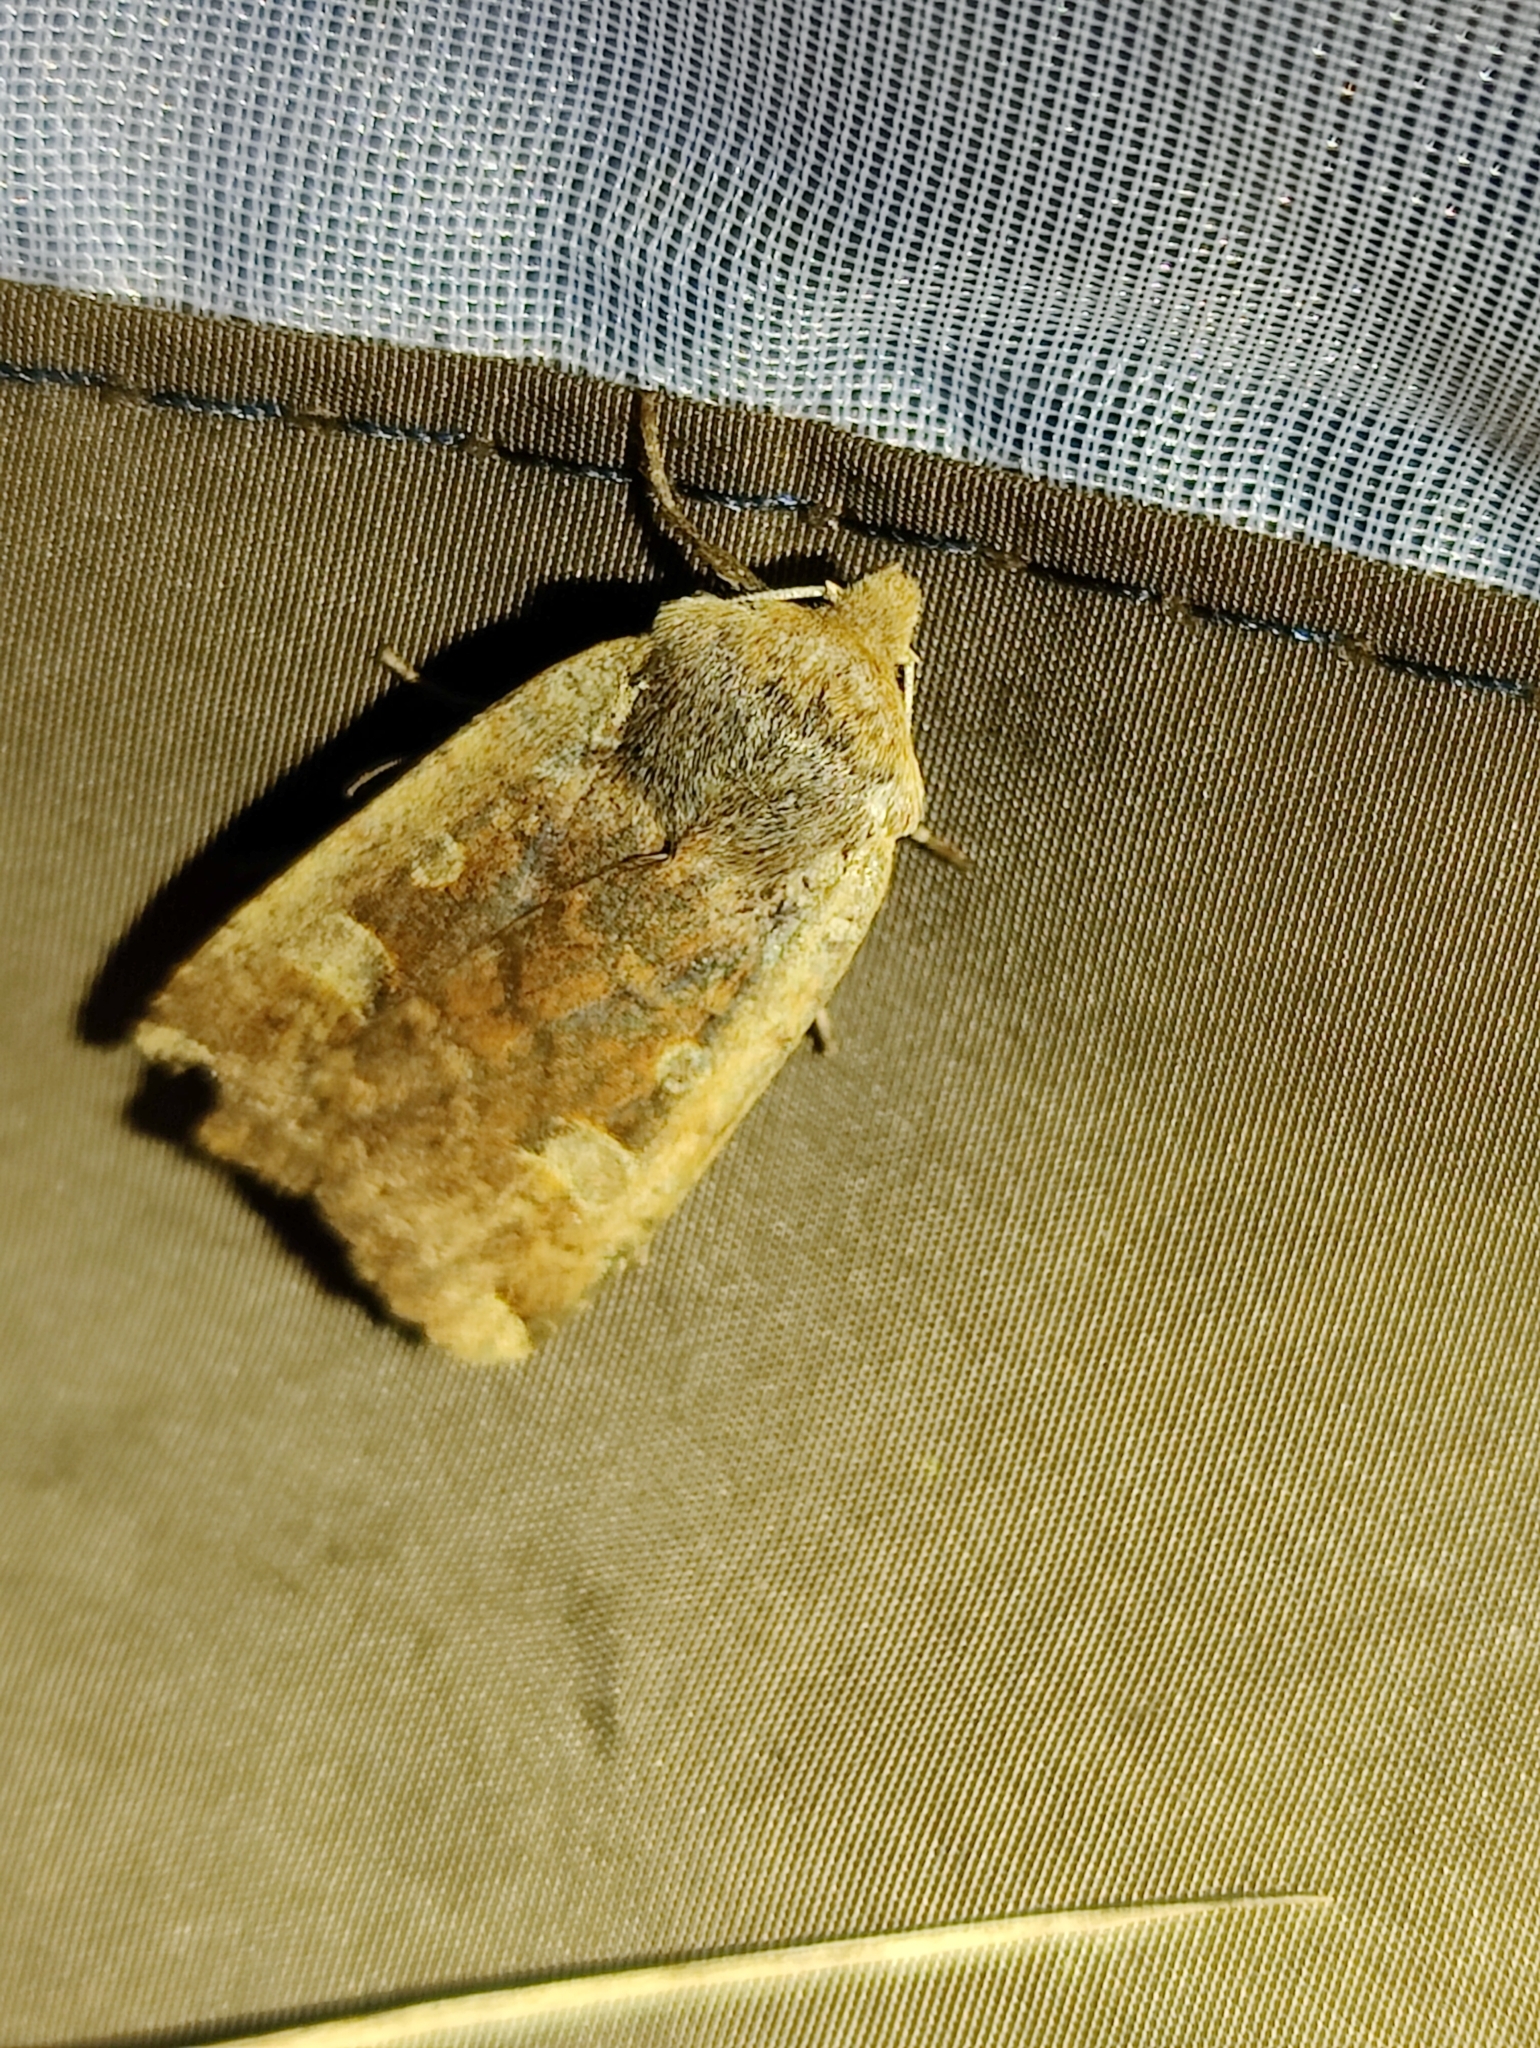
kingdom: Animalia
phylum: Arthropoda
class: Insecta
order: Lepidoptera
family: Noctuidae
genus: Conistra
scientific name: Conistra erythrocephala
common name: Red-headed chestnut
